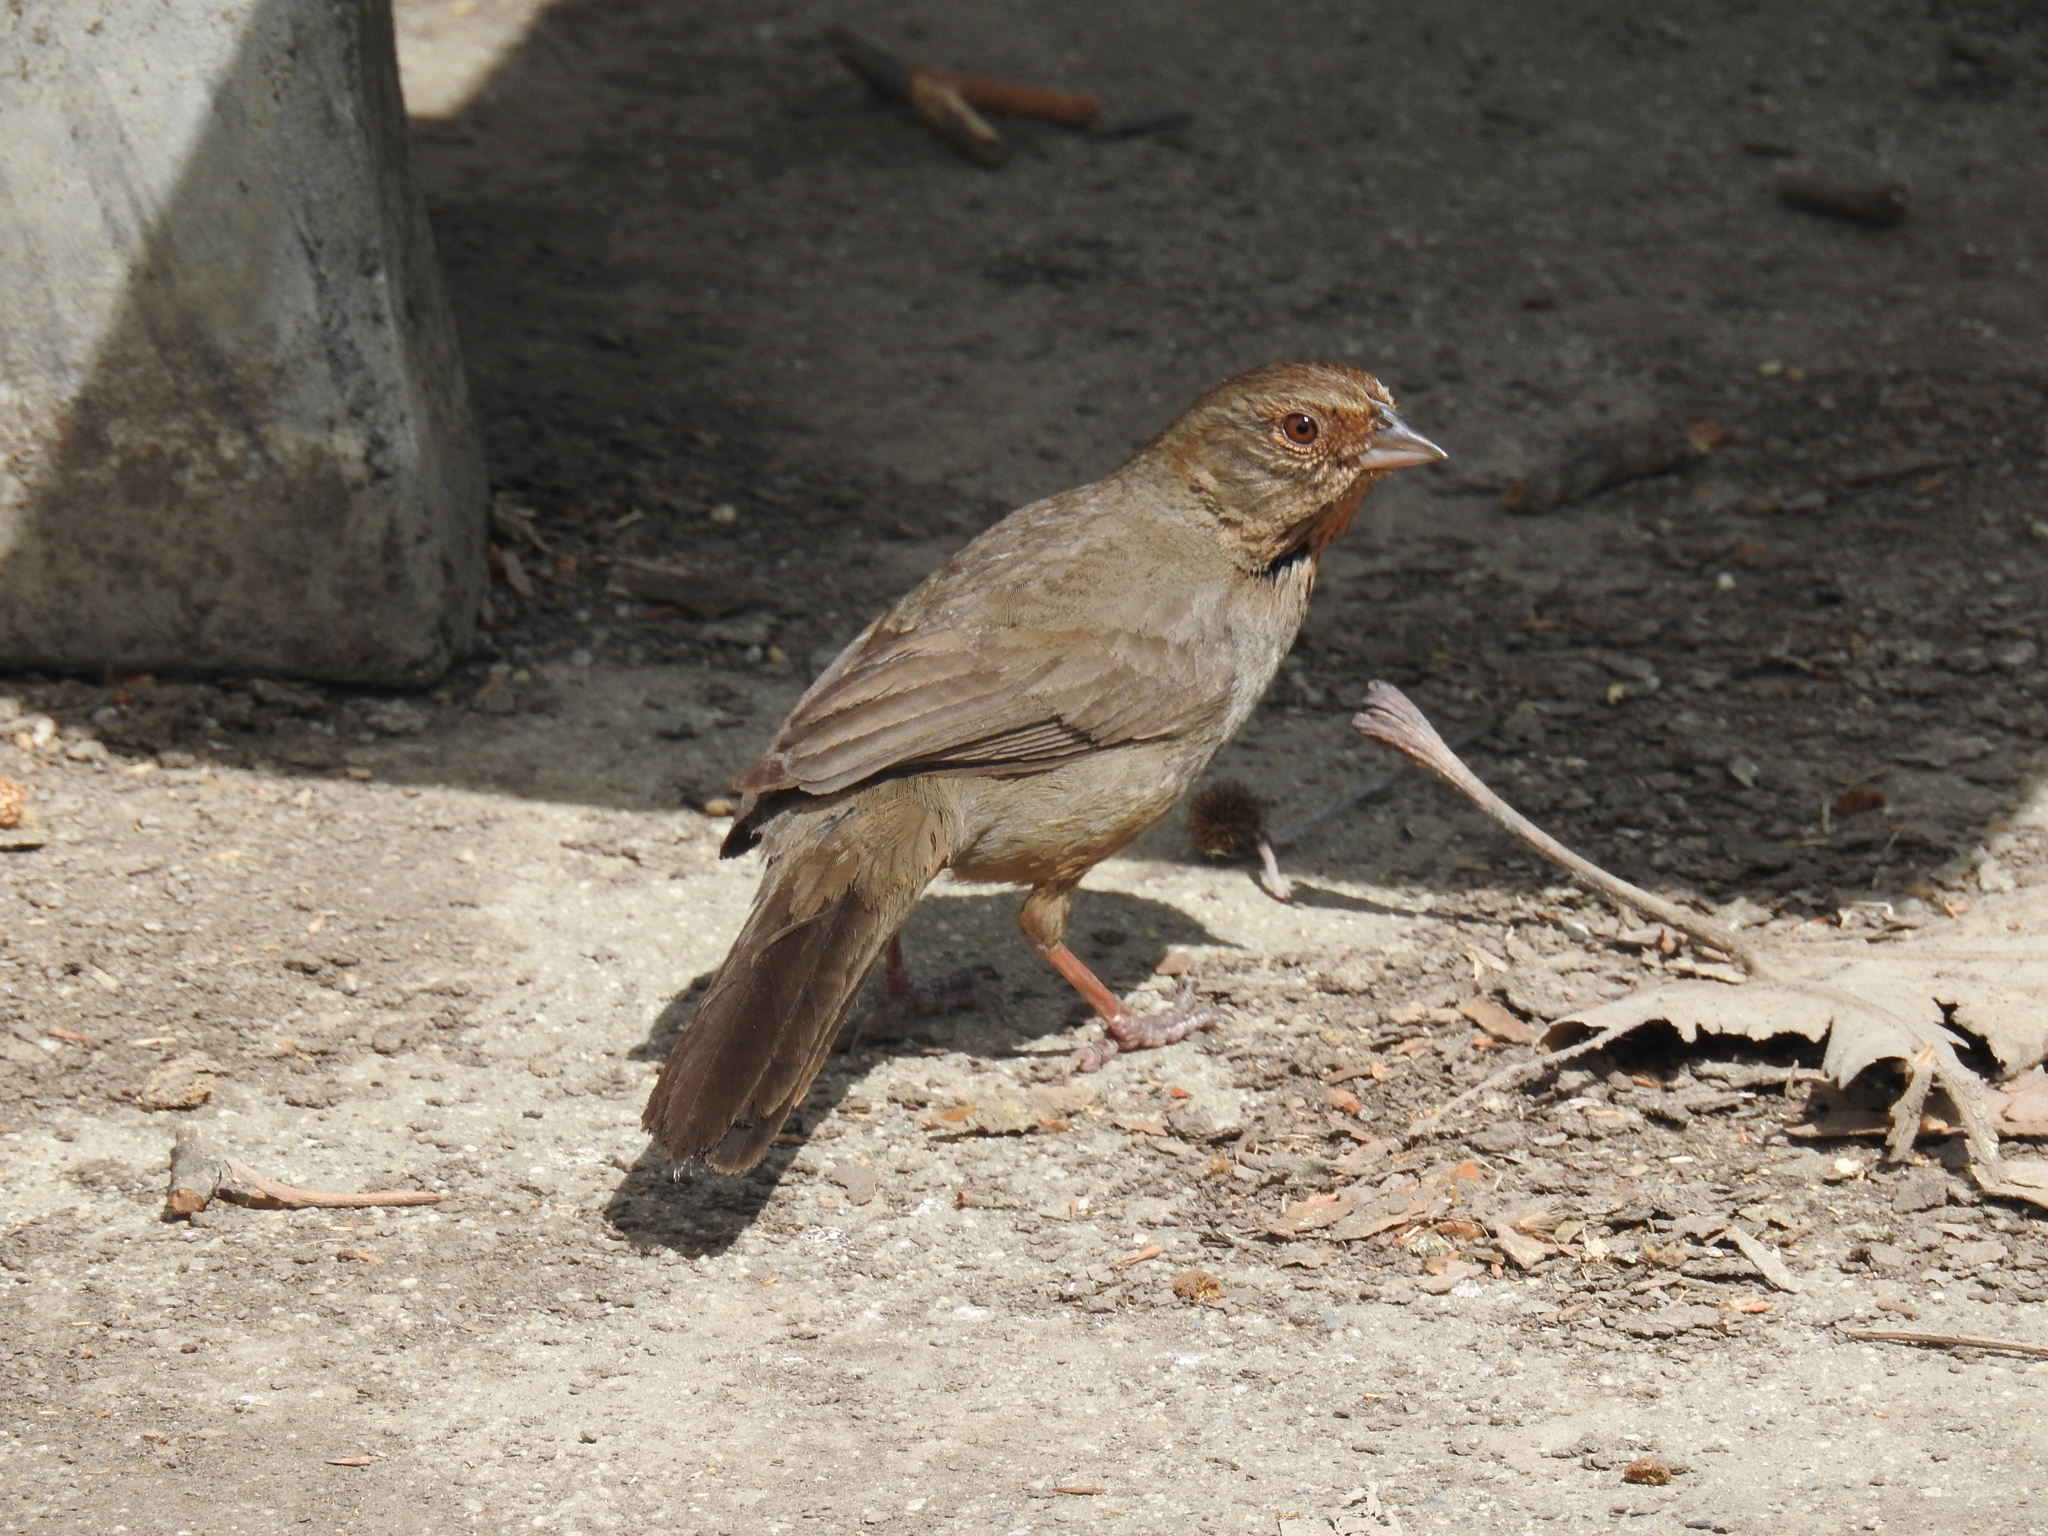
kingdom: Animalia
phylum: Chordata
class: Aves
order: Passeriformes
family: Passerellidae
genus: Melozone
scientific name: Melozone crissalis
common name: California towhee
